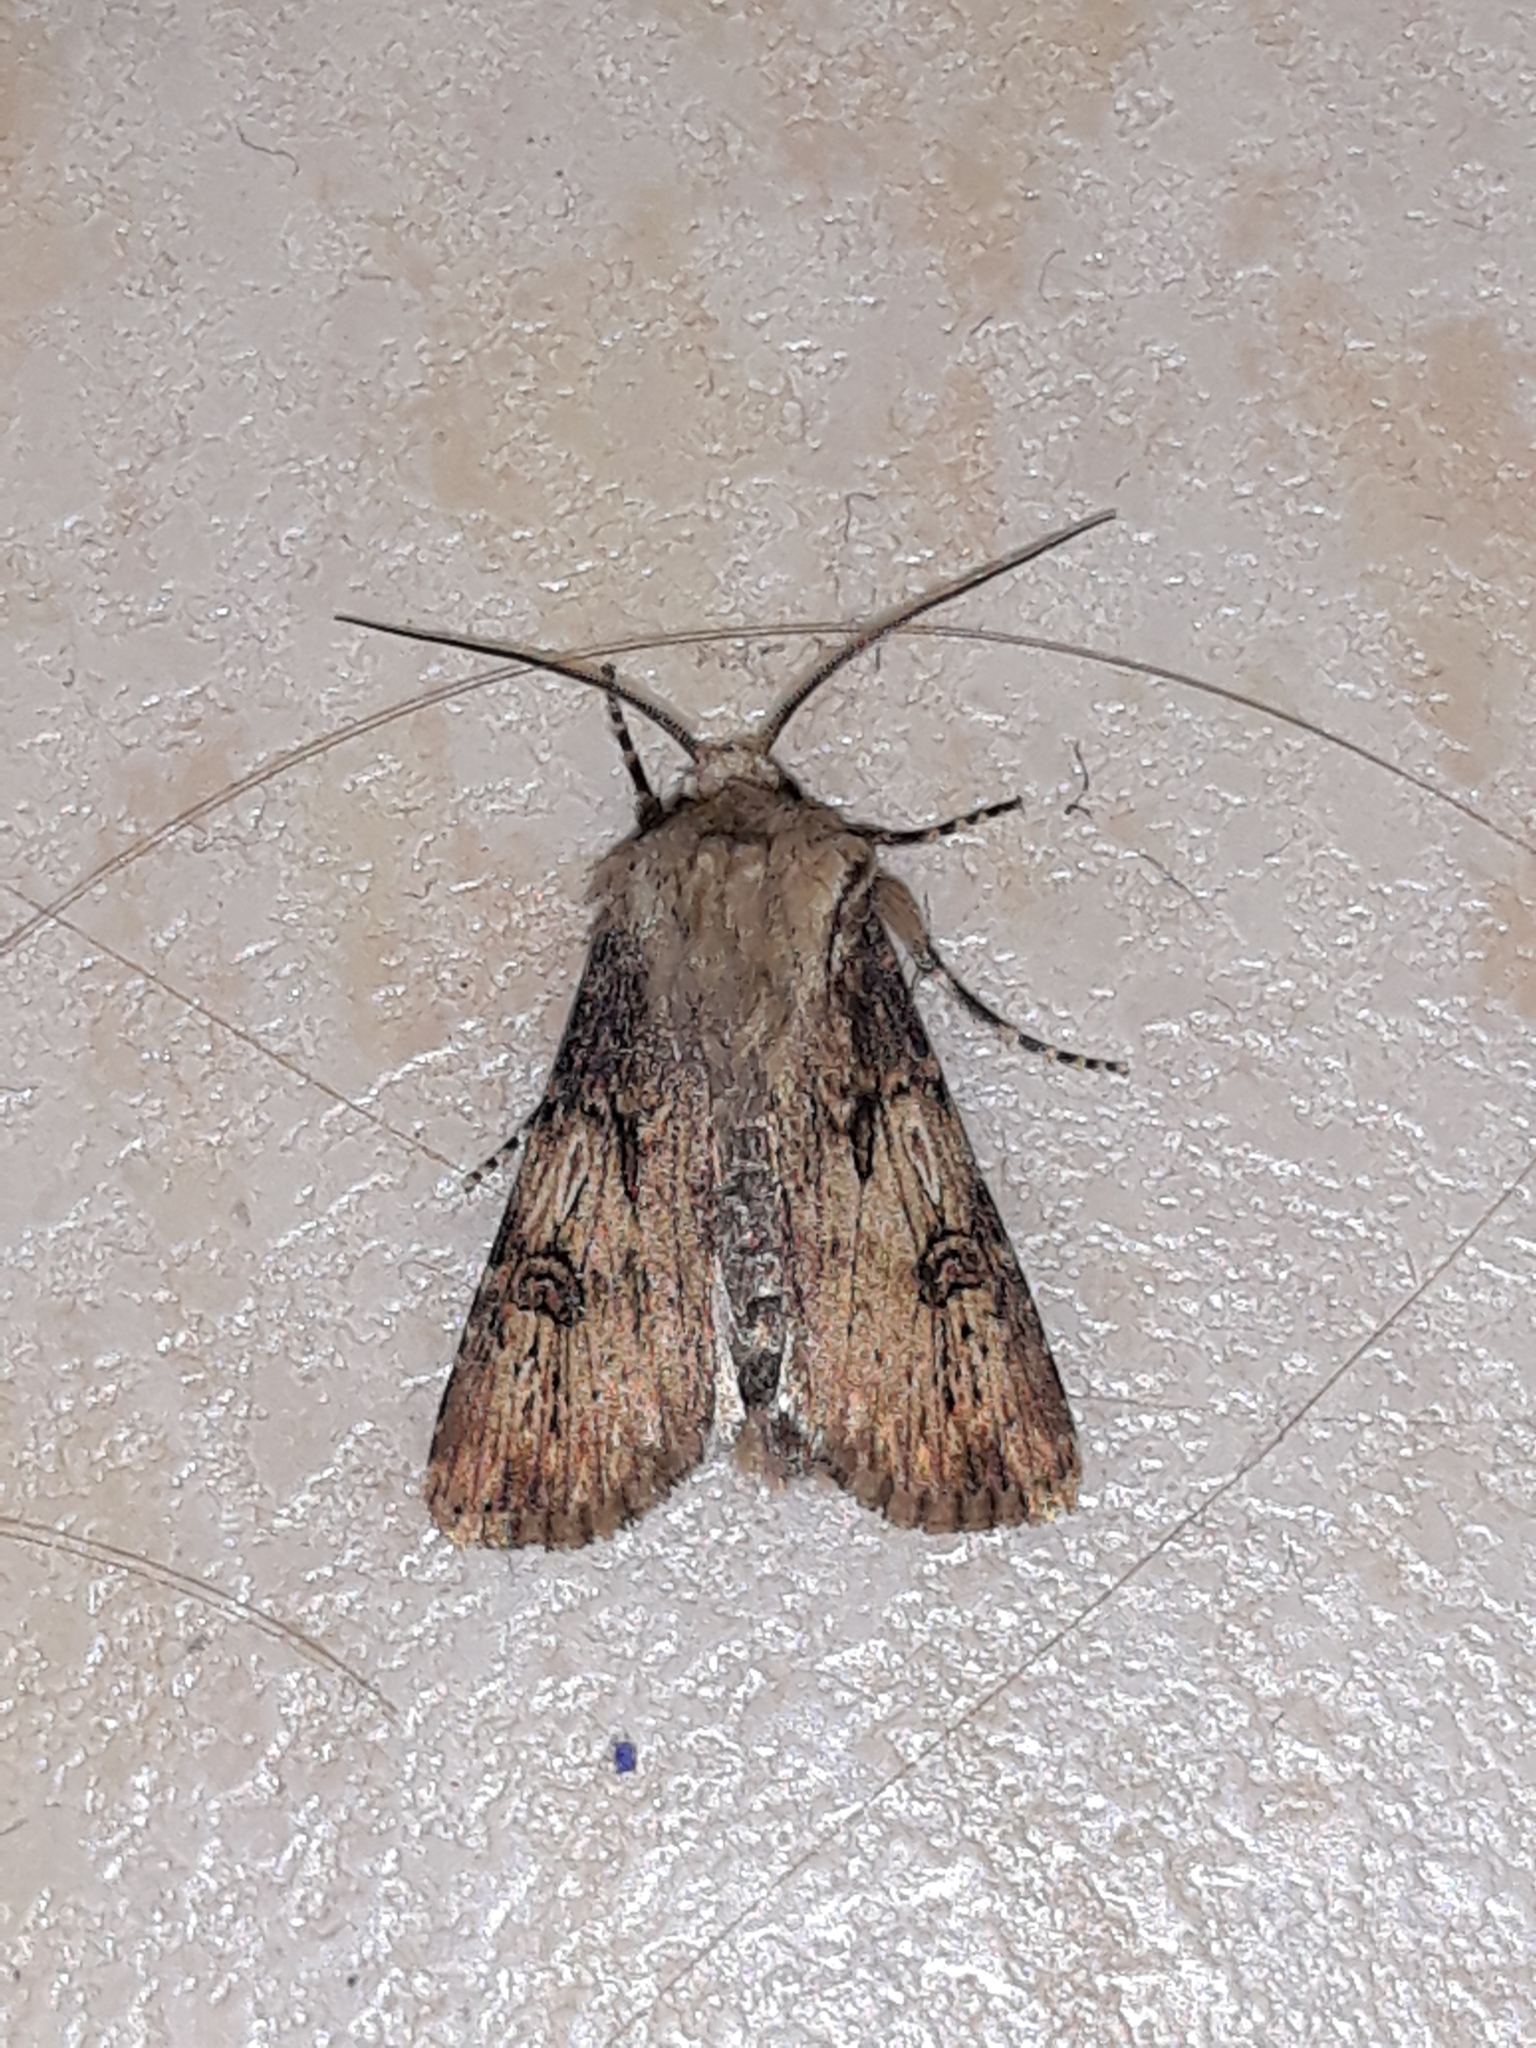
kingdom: Animalia
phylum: Arthropoda
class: Insecta
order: Lepidoptera
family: Noctuidae
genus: Agrotis
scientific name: Agrotis puta
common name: Shuttle-shaped dart
